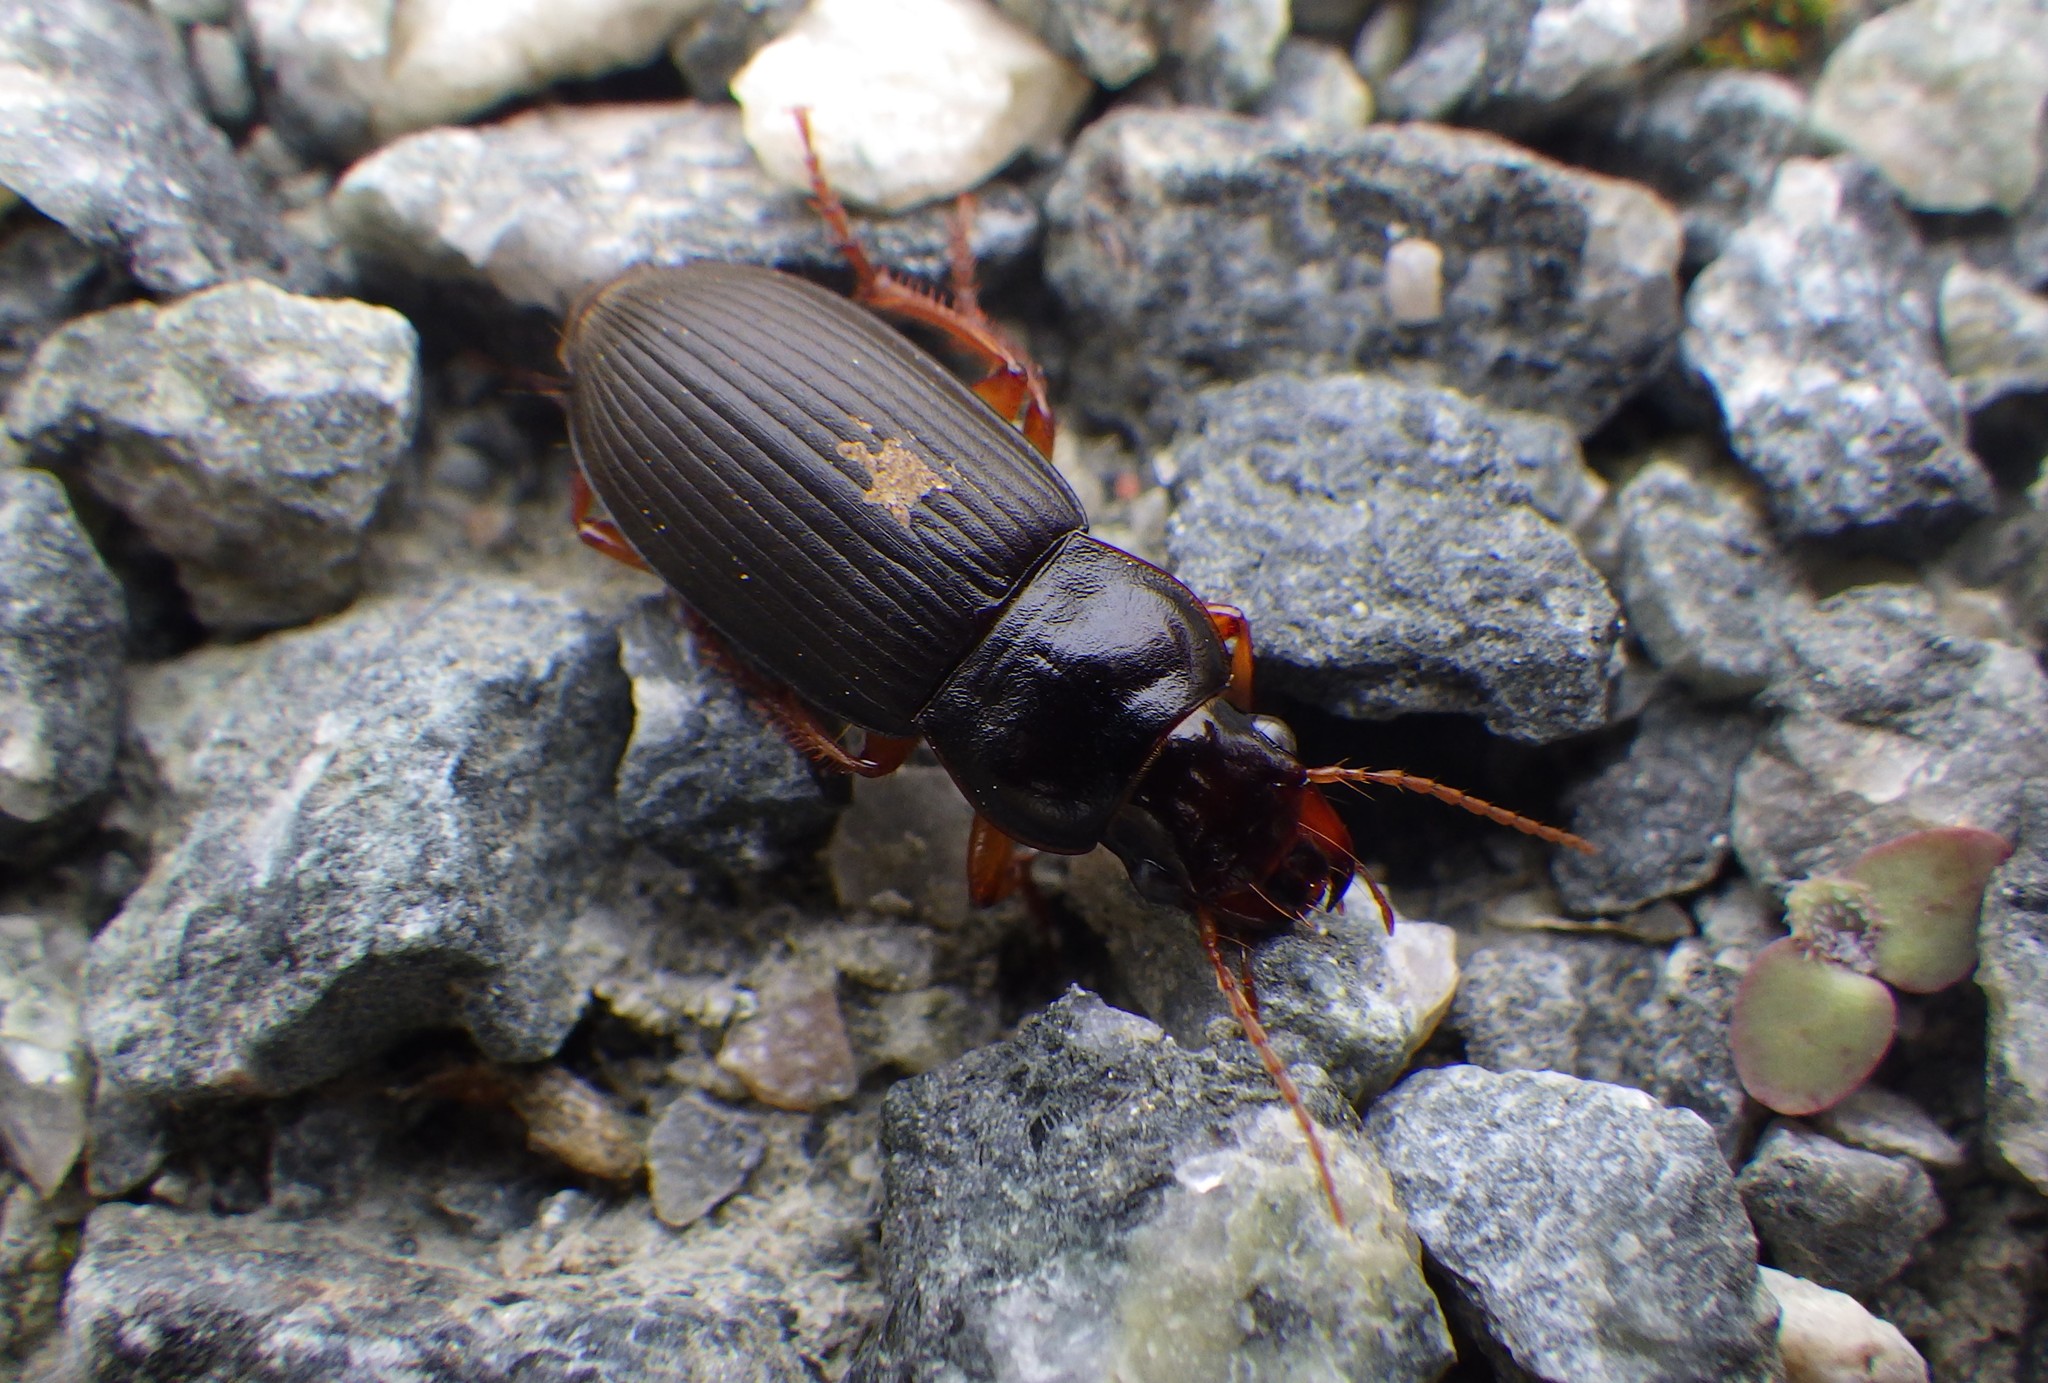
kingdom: Animalia
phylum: Arthropoda
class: Insecta
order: Coleoptera
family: Carabidae
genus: Harpalus
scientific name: Harpalus rufipes
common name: Strawberry harp ground beetle
